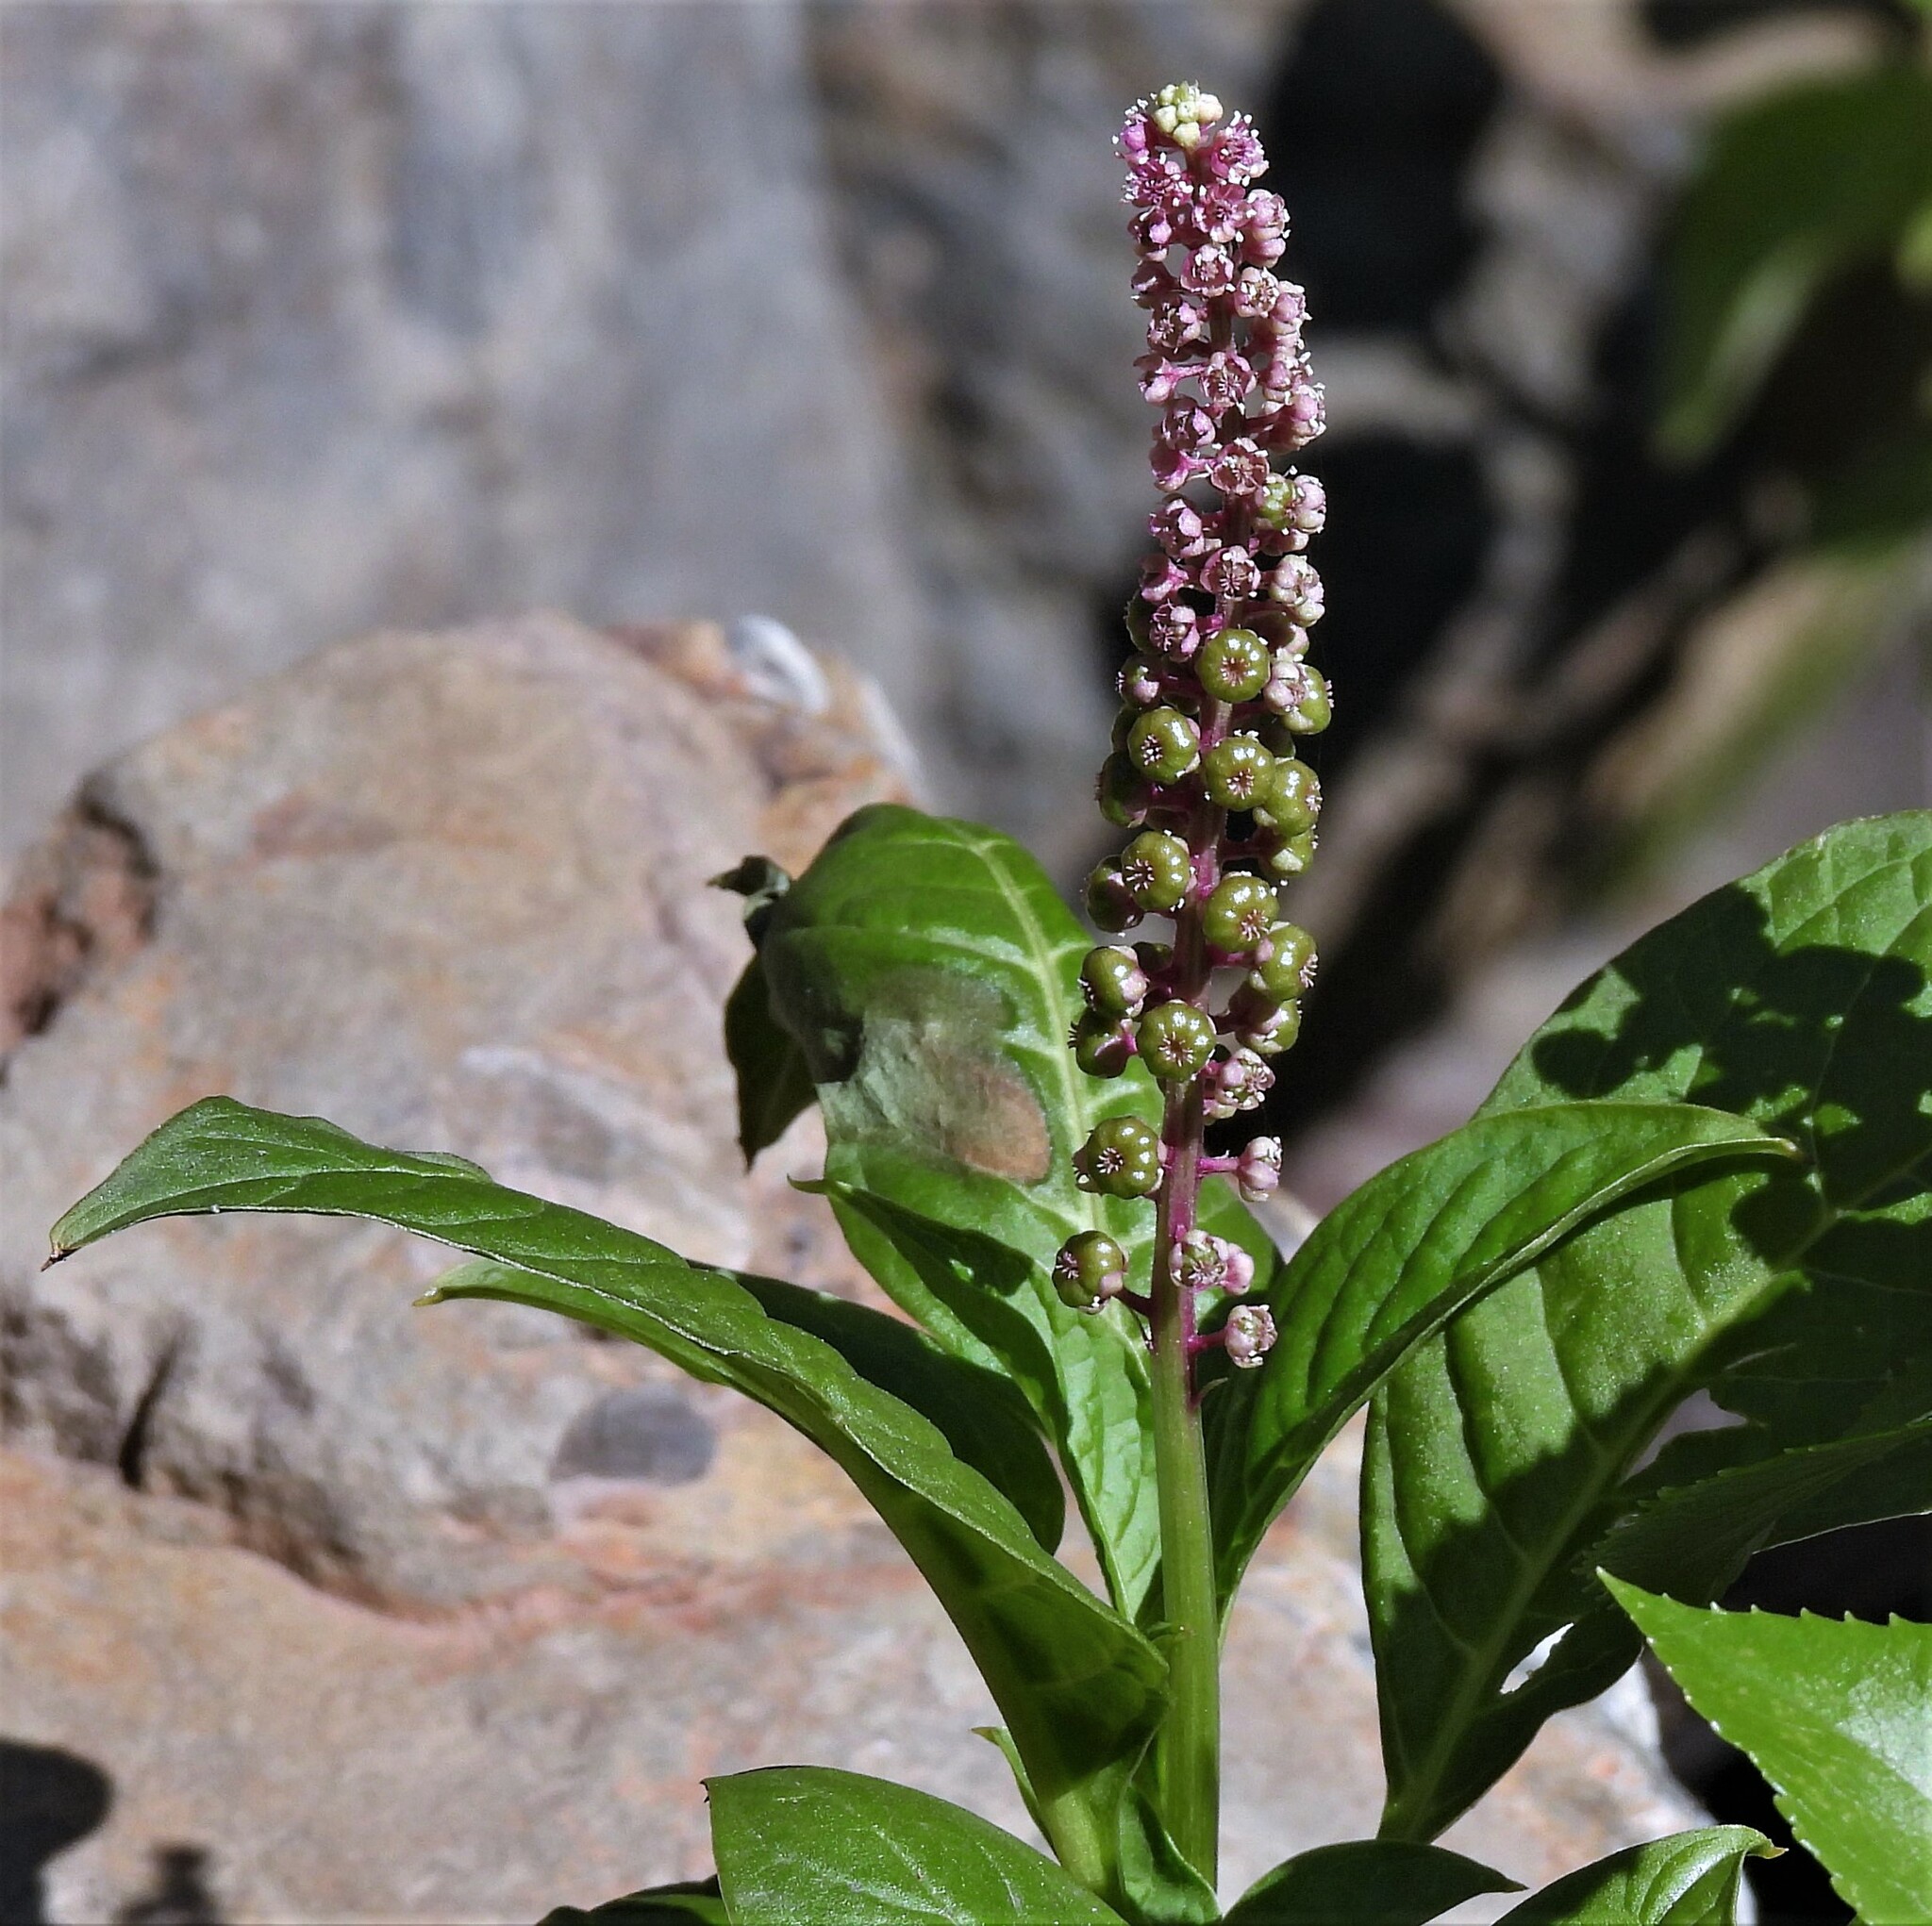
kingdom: Plantae
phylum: Tracheophyta
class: Magnoliopsida
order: Caryophyllales
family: Phytolaccaceae
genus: Phytolacca
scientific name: Phytolacca bogotensis
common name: Southern pokeweed
